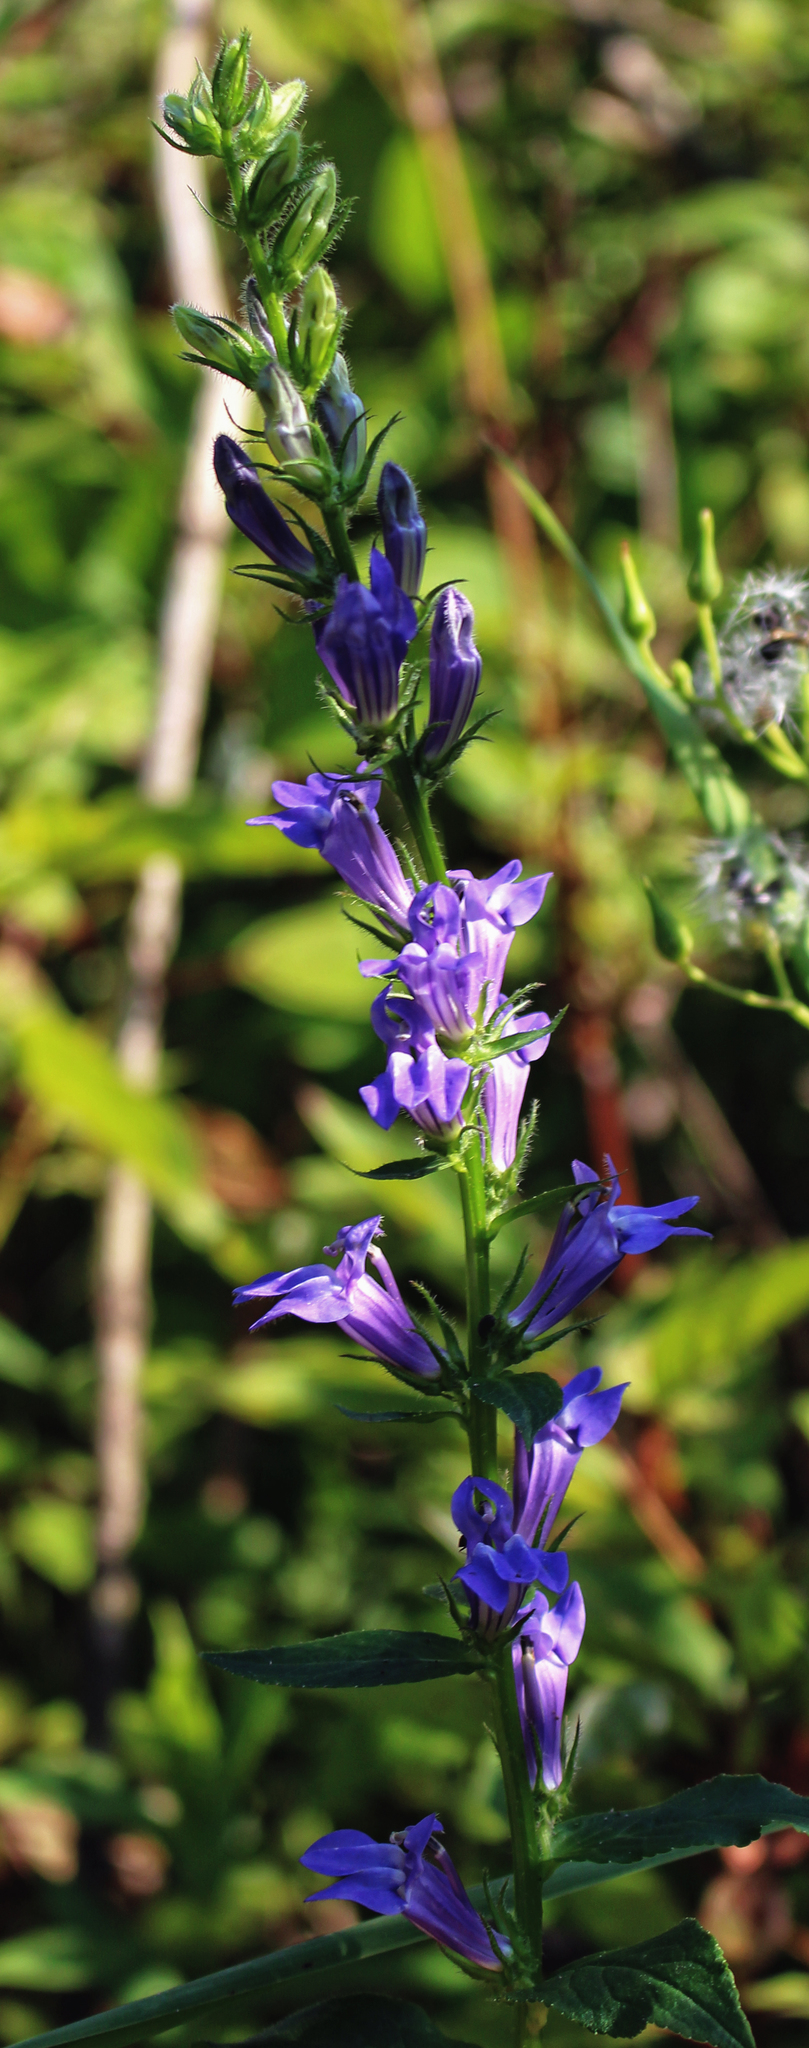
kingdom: Plantae
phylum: Tracheophyta
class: Magnoliopsida
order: Asterales
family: Campanulaceae
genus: Lobelia
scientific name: Lobelia siphilitica
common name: Great lobelia
